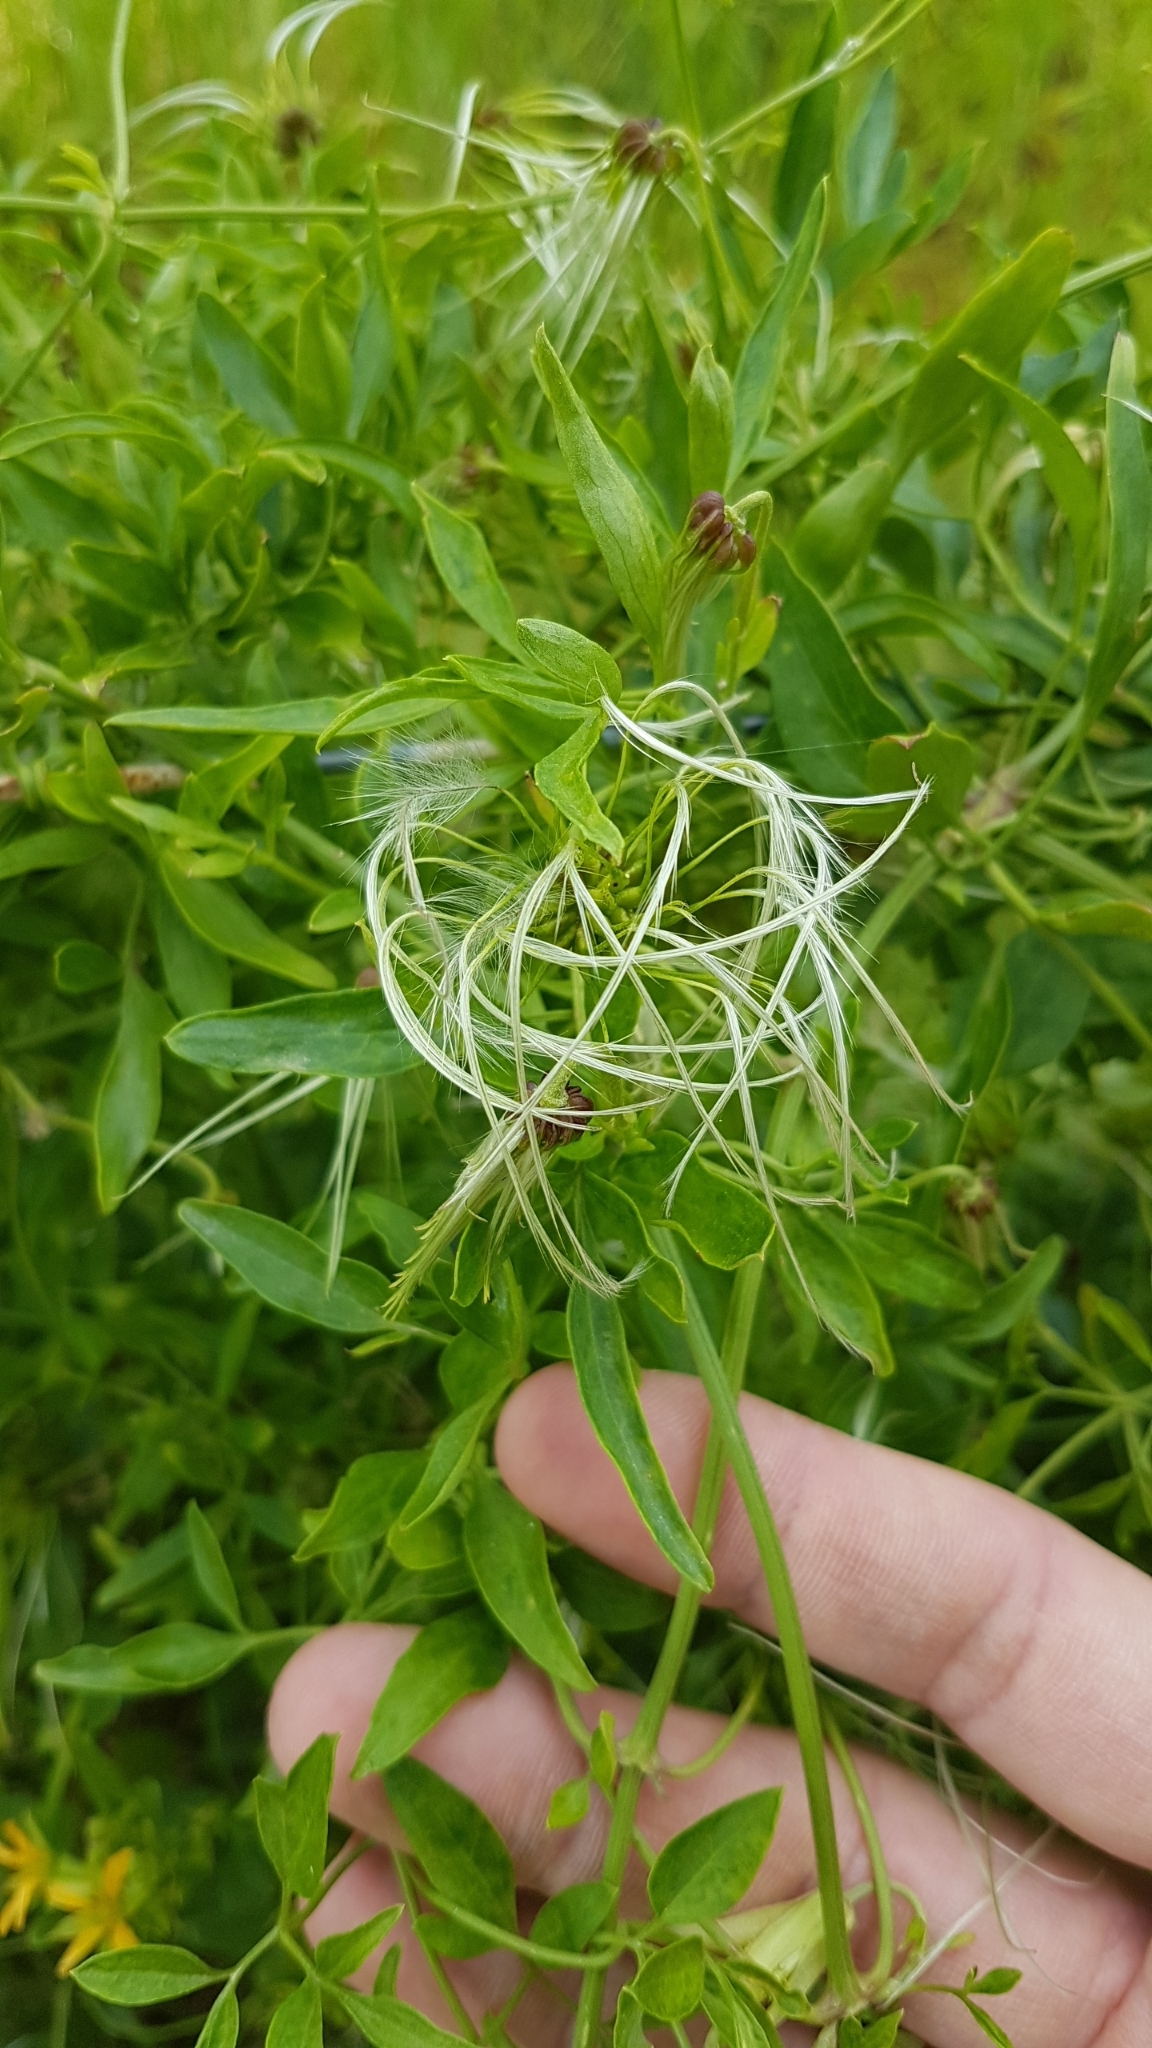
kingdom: Plantae
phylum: Tracheophyta
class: Magnoliopsida
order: Ranunculales
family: Ranunculaceae
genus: Clematis
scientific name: Clematis microphylla
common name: Headachevine
